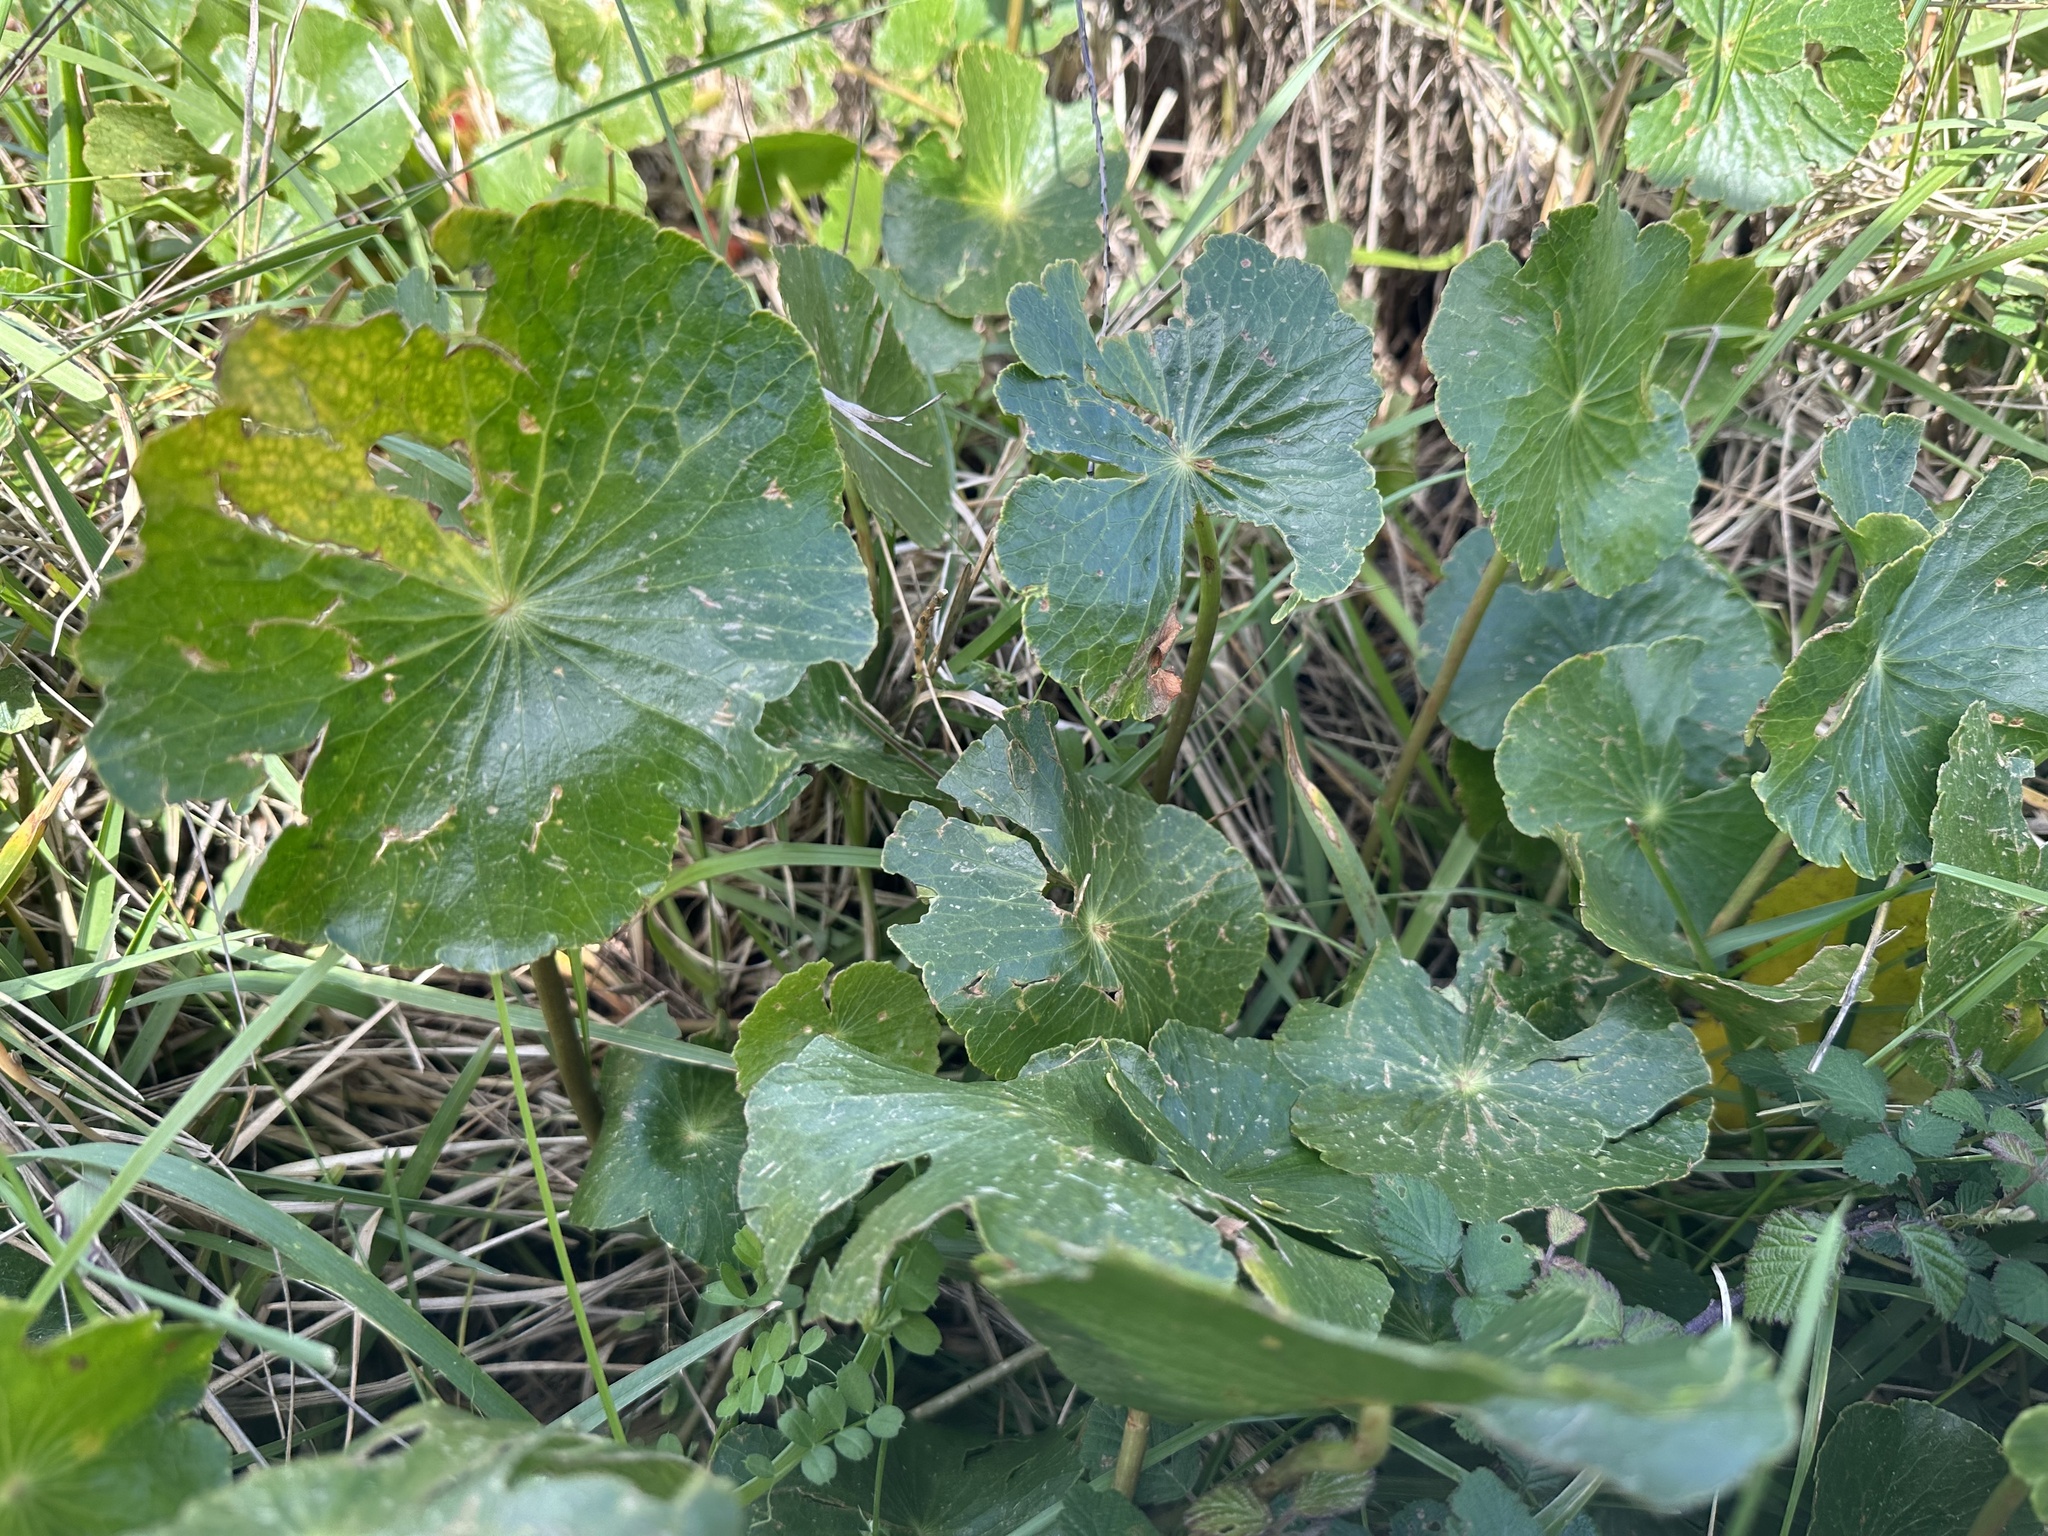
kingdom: Plantae
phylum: Tracheophyta
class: Magnoliopsida
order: Apiales
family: Araliaceae
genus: Hydrocotyle
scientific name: Hydrocotyle bonariensis
